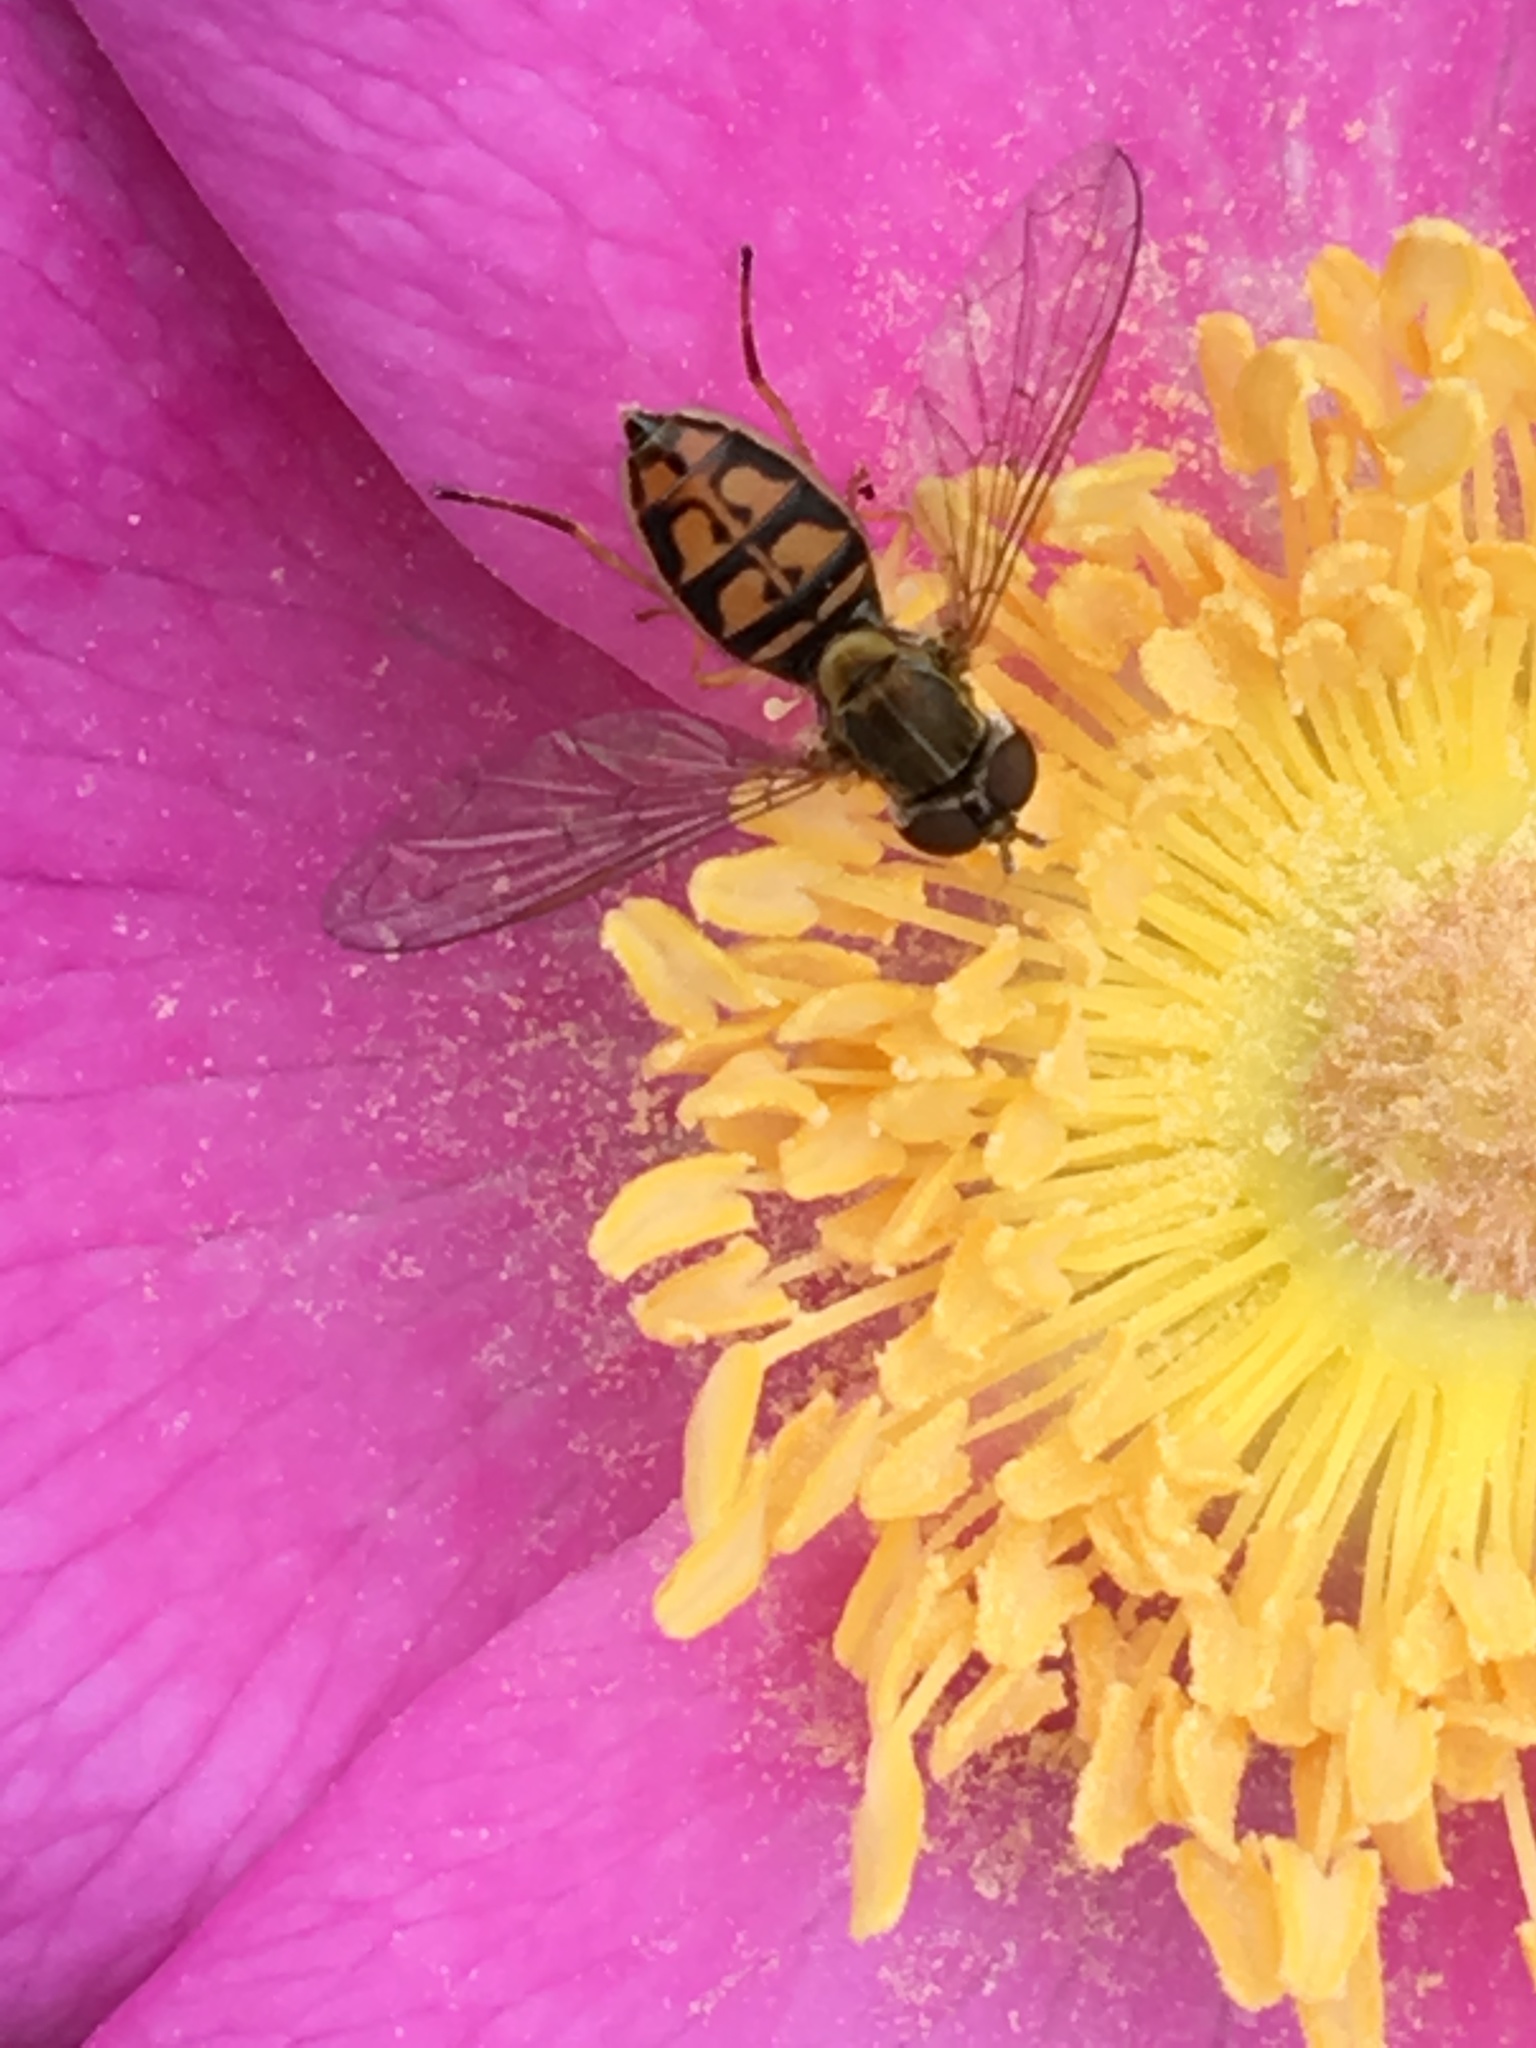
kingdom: Animalia
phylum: Arthropoda
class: Insecta
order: Diptera
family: Syrphidae
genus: Toxomerus
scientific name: Toxomerus marginatus
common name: Syrphid fly
